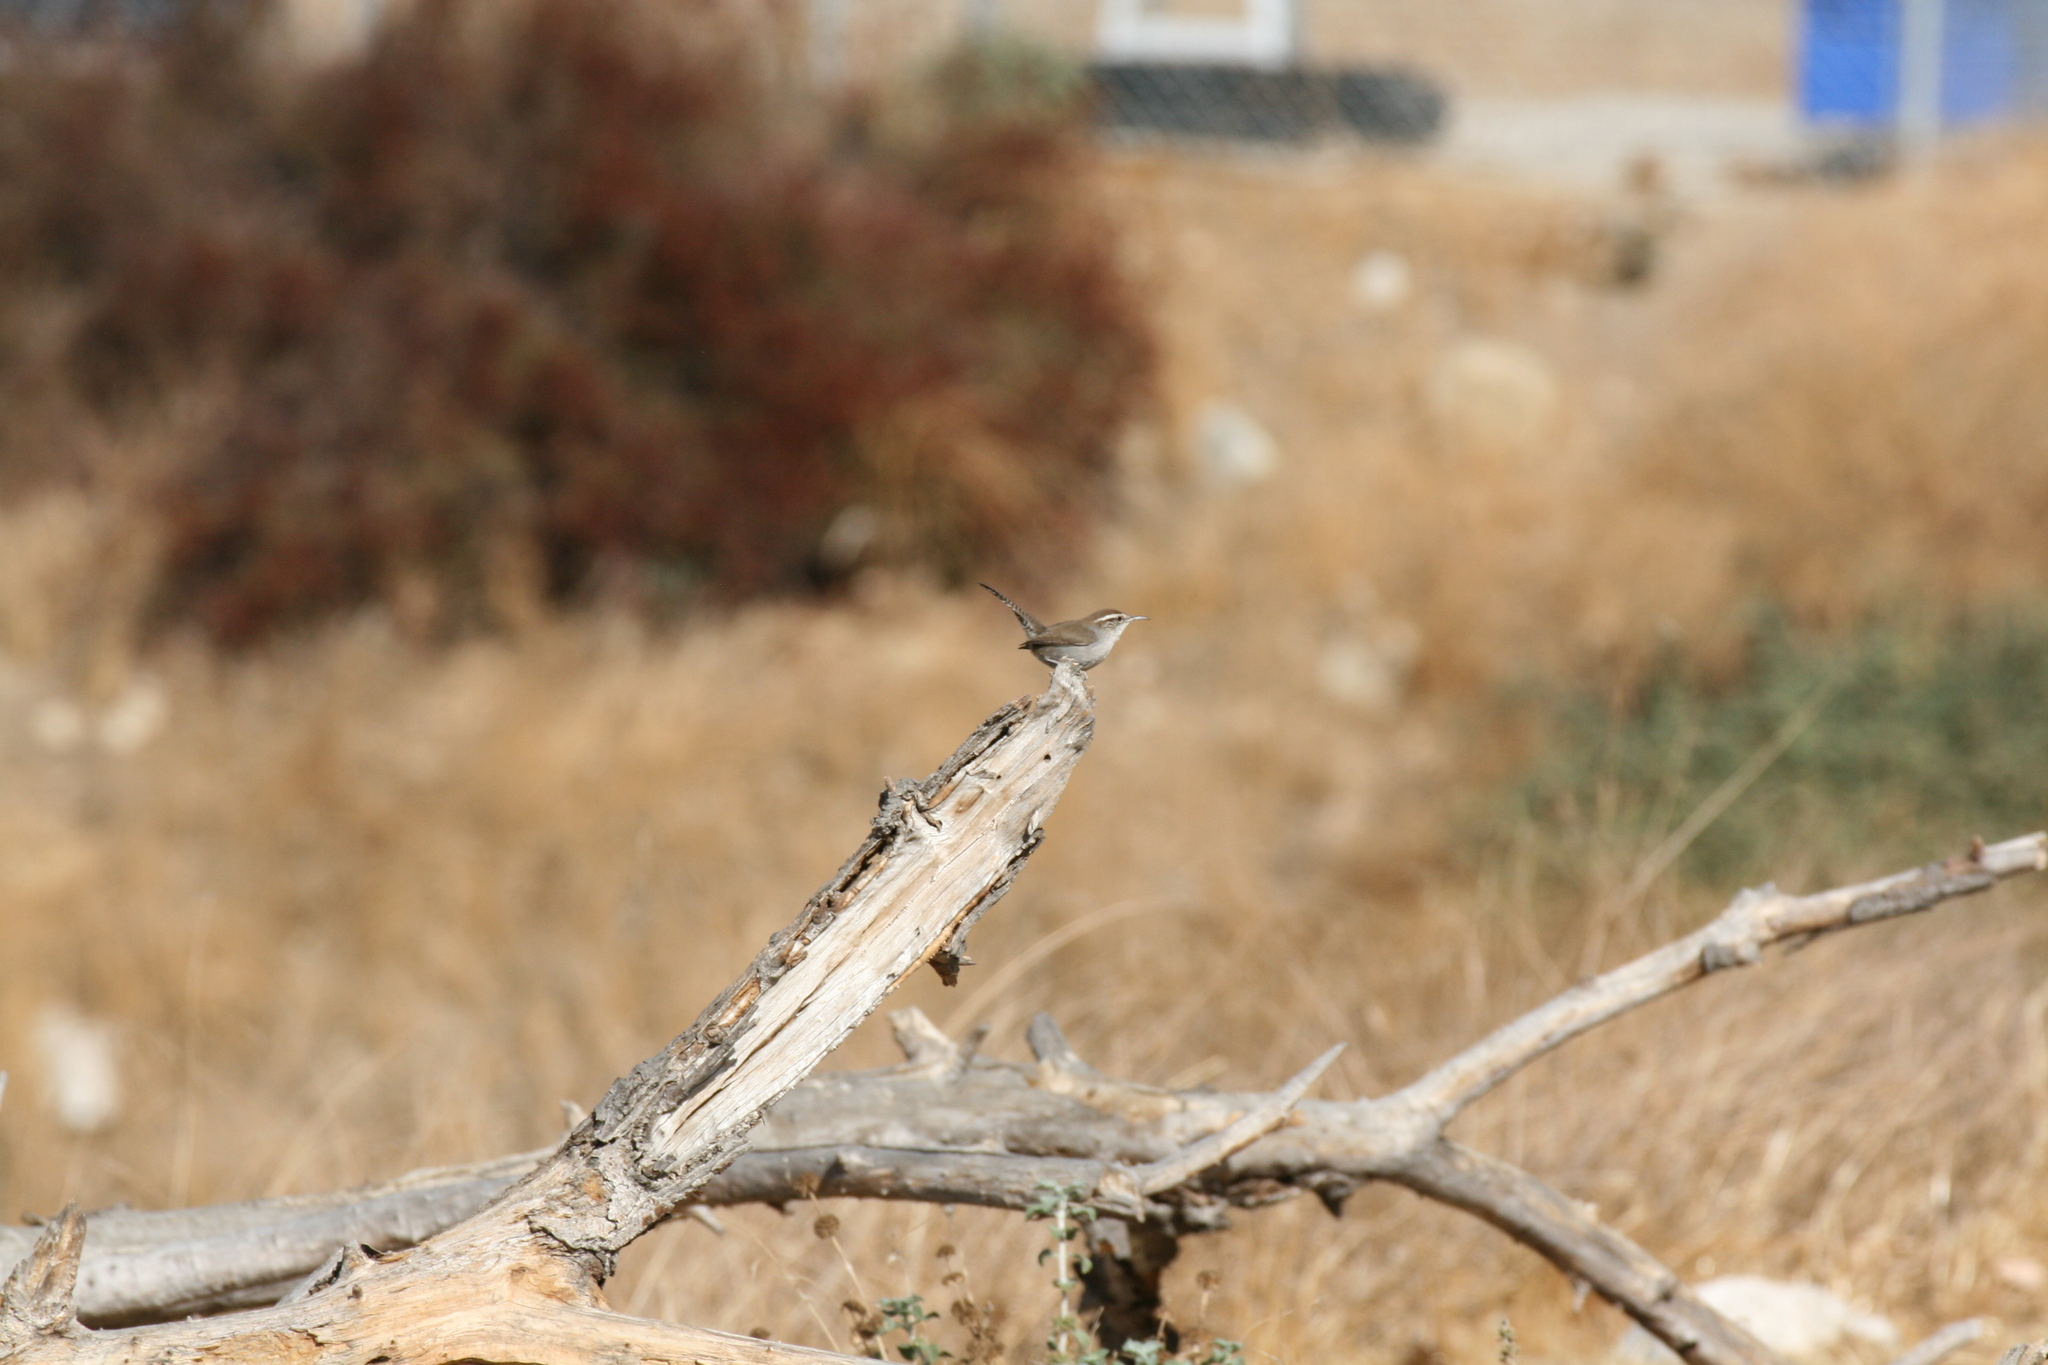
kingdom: Animalia
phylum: Chordata
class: Aves
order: Passeriformes
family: Tyrannidae
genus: Tyrannus
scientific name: Tyrannus vociferans
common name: Cassin's kingbird
